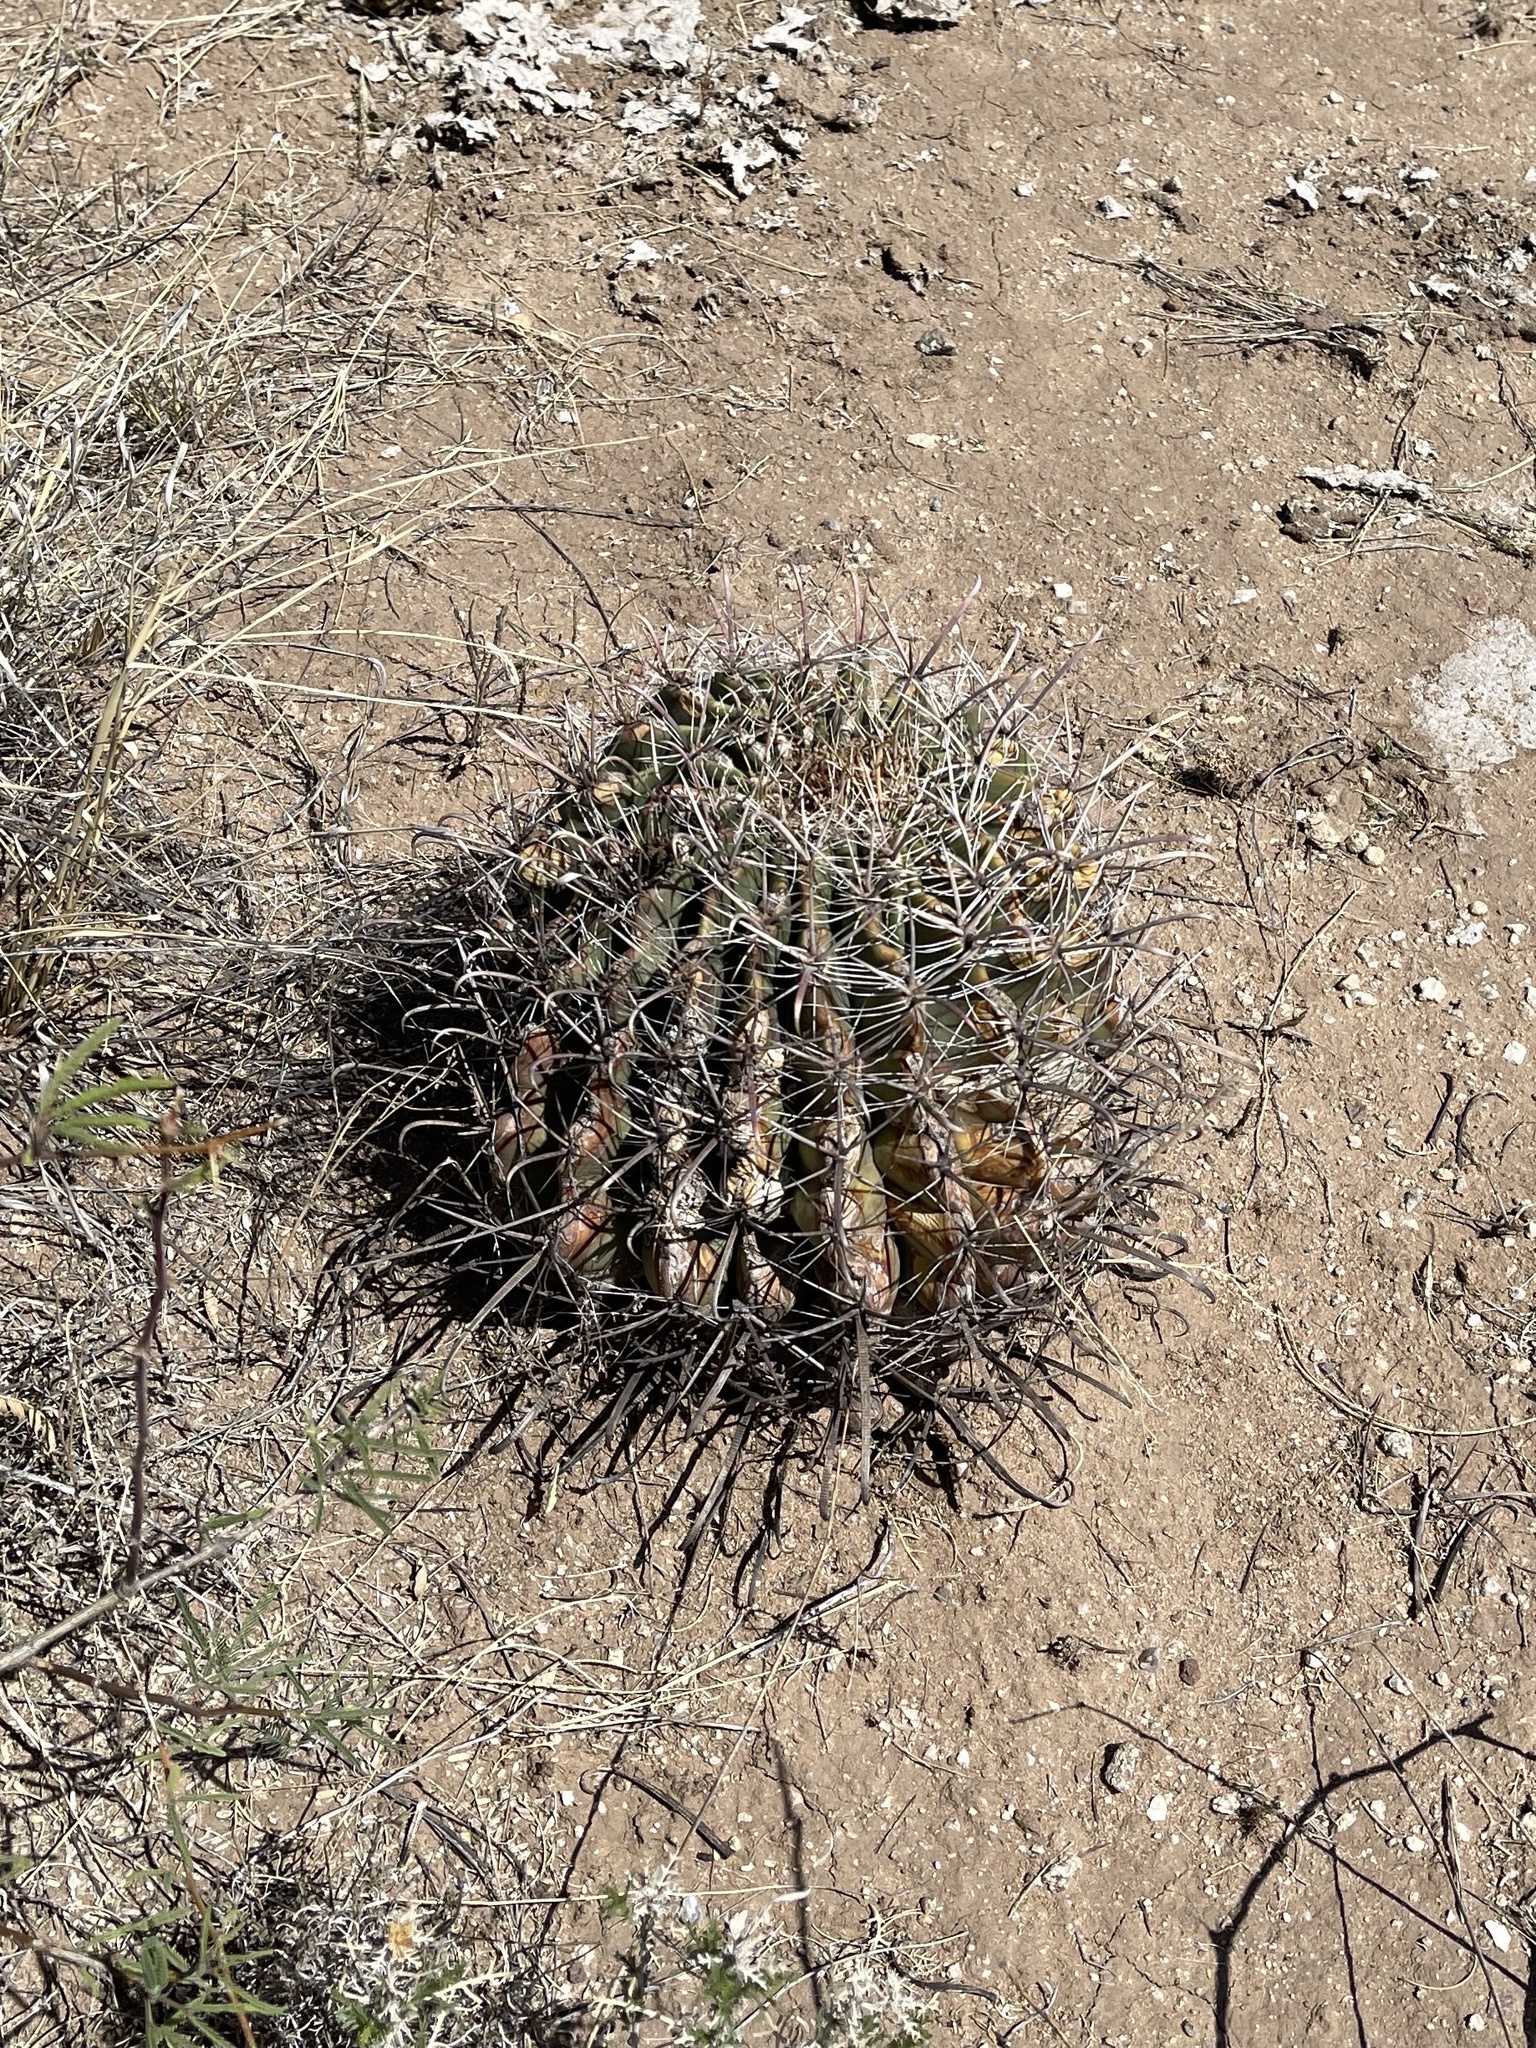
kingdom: Plantae
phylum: Tracheophyta
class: Magnoliopsida
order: Caryophyllales
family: Cactaceae
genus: Ferocactus
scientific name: Ferocactus wislizeni
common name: Candy barrel cactus
